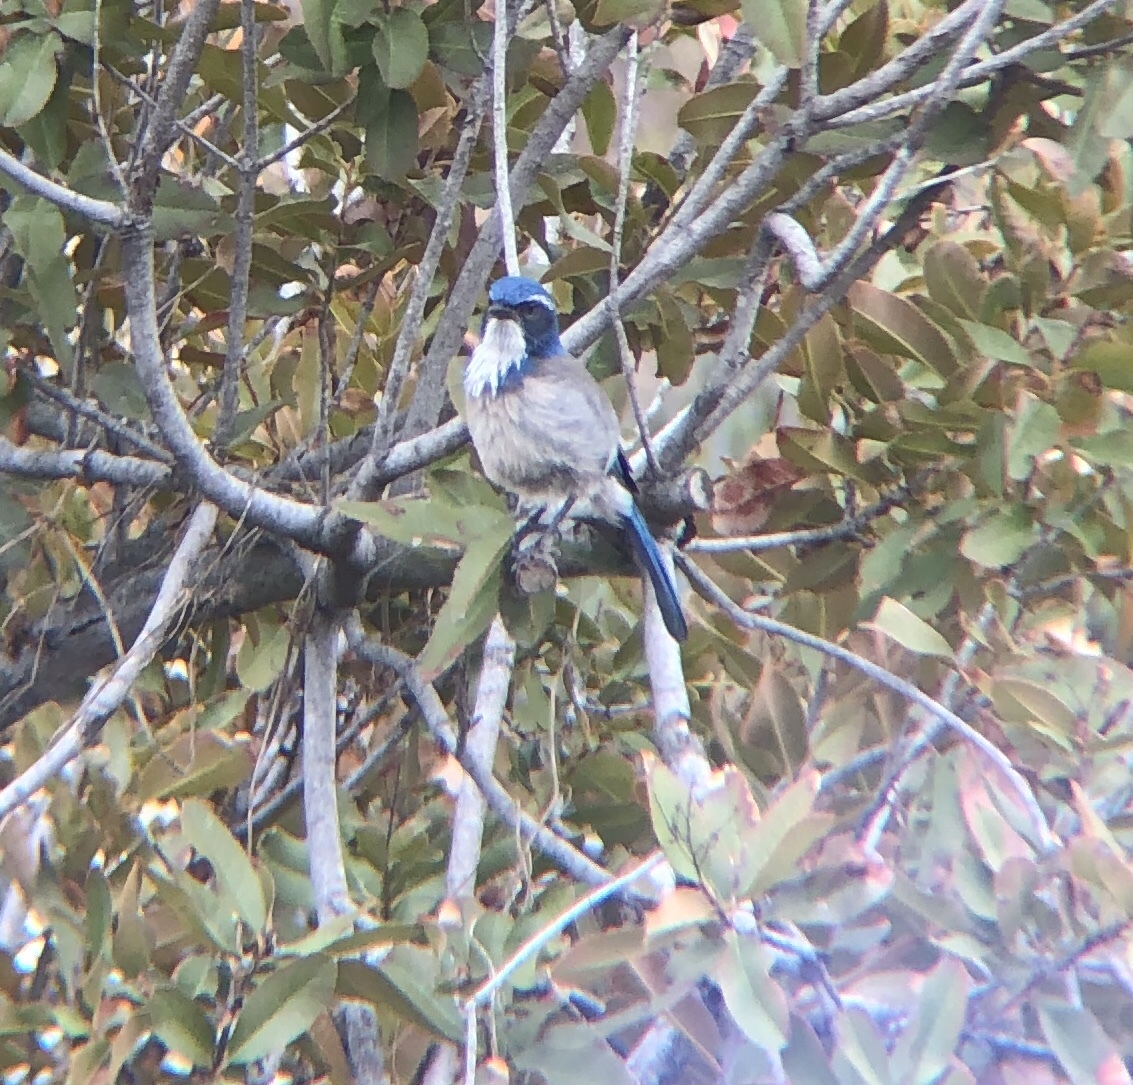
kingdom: Animalia
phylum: Chordata
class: Aves
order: Passeriformes
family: Corvidae
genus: Aphelocoma
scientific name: Aphelocoma californica
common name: California scrub-jay
